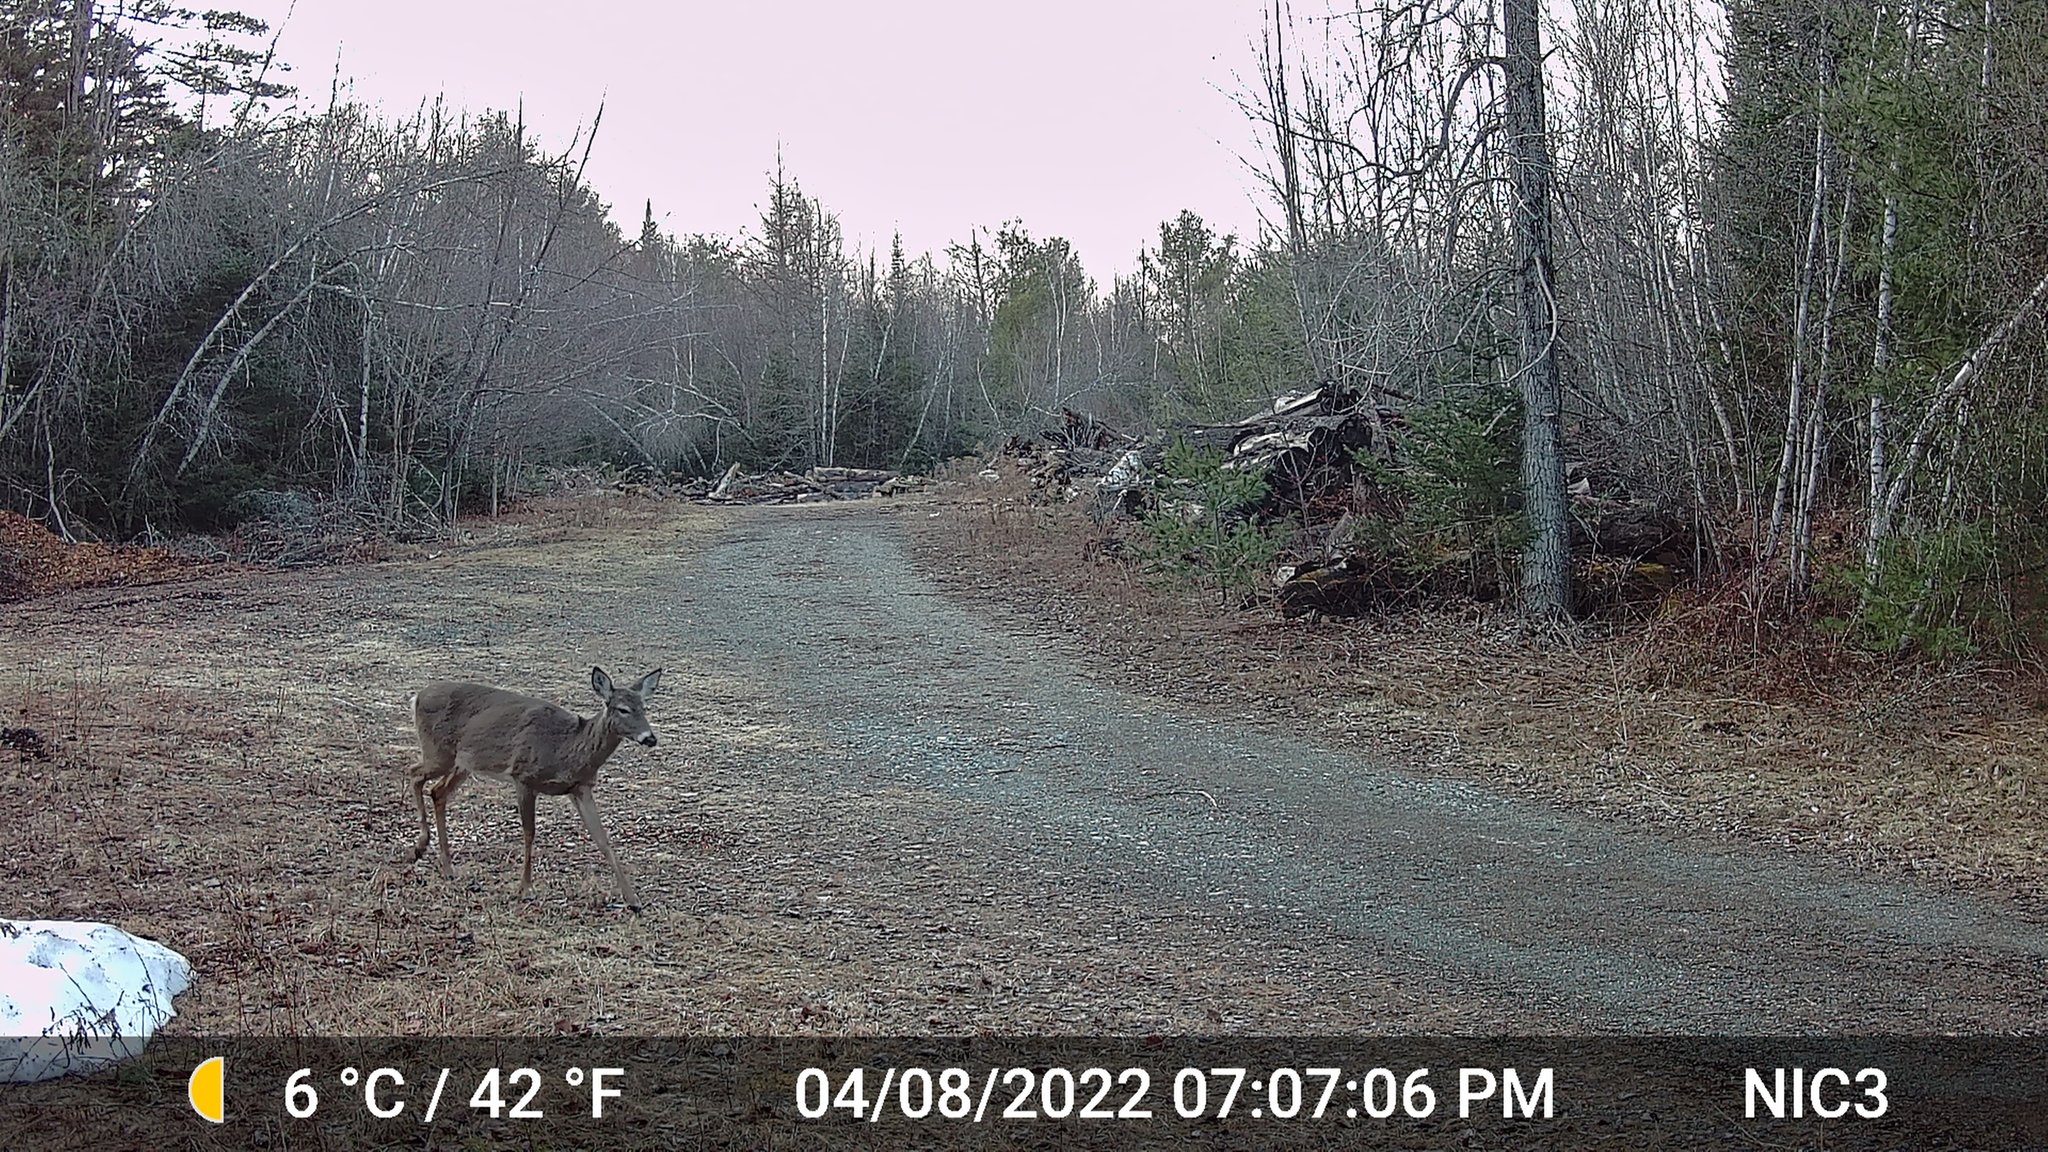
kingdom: Animalia
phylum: Chordata
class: Mammalia
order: Artiodactyla
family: Cervidae
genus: Odocoileus
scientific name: Odocoileus virginianus
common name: White-tailed deer
